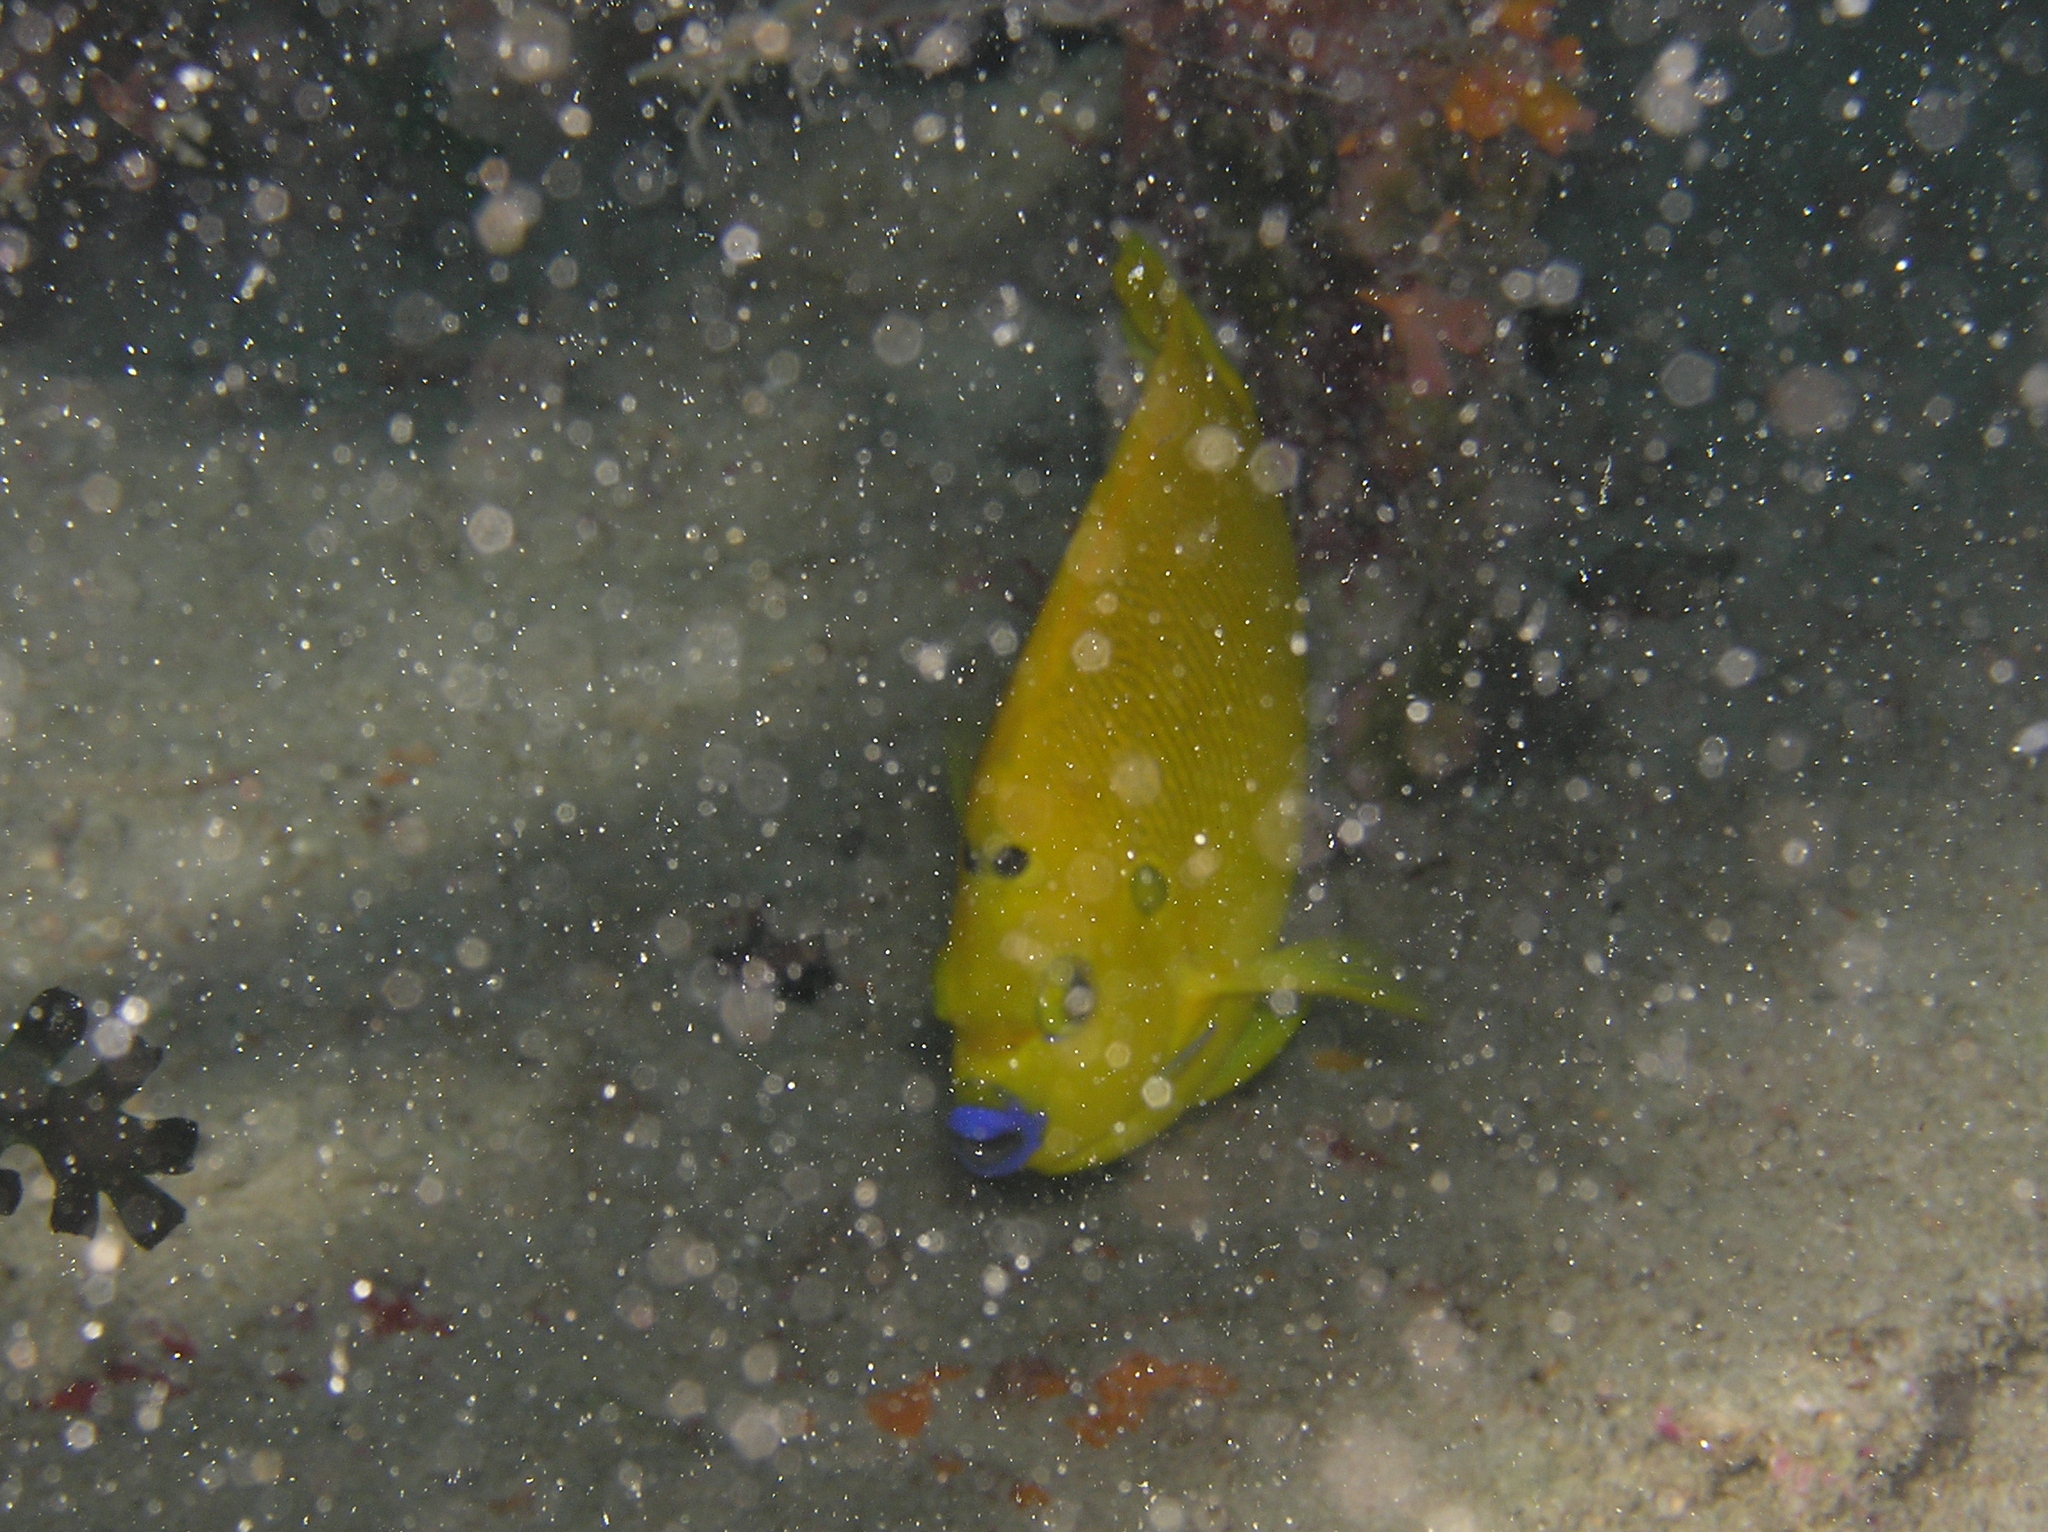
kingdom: Animalia
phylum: Chordata
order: Perciformes
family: Pomacanthidae
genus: Apolemichthys
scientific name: Apolemichthys trimaculatus
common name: Threespot angelfish
